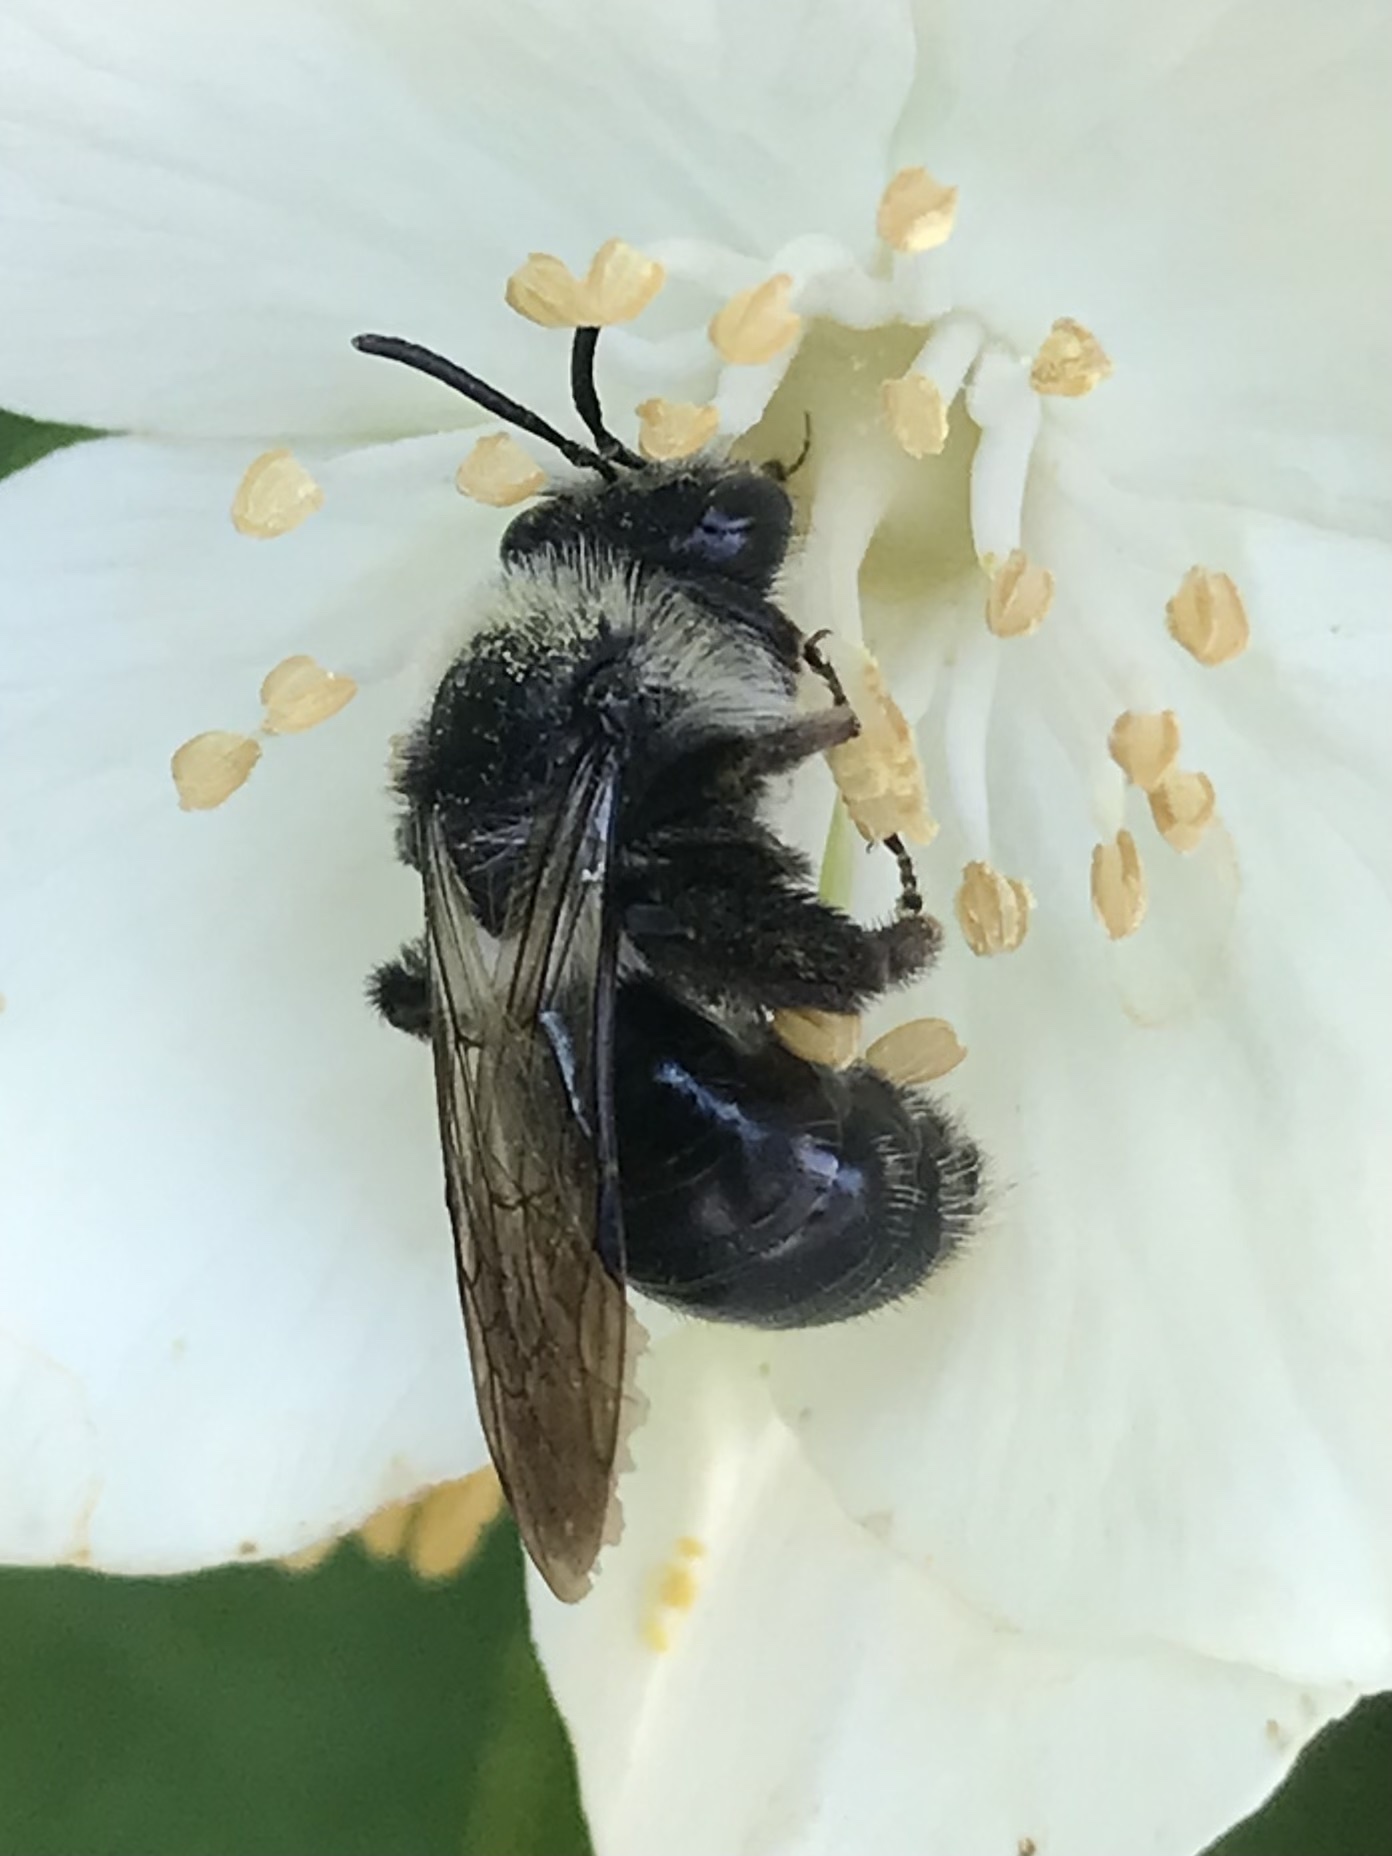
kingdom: Animalia
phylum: Arthropoda
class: Insecta
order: Hymenoptera
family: Andrenidae
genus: Andrena
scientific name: Andrena cineraria
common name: Ashy mining bee
